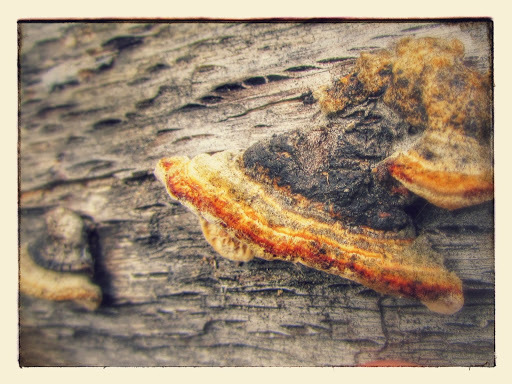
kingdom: Fungi
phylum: Basidiomycota
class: Agaricomycetes
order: Polyporales
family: Polyporaceae
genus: Lenzites
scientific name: Lenzites betulinus
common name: Birch mazegill
